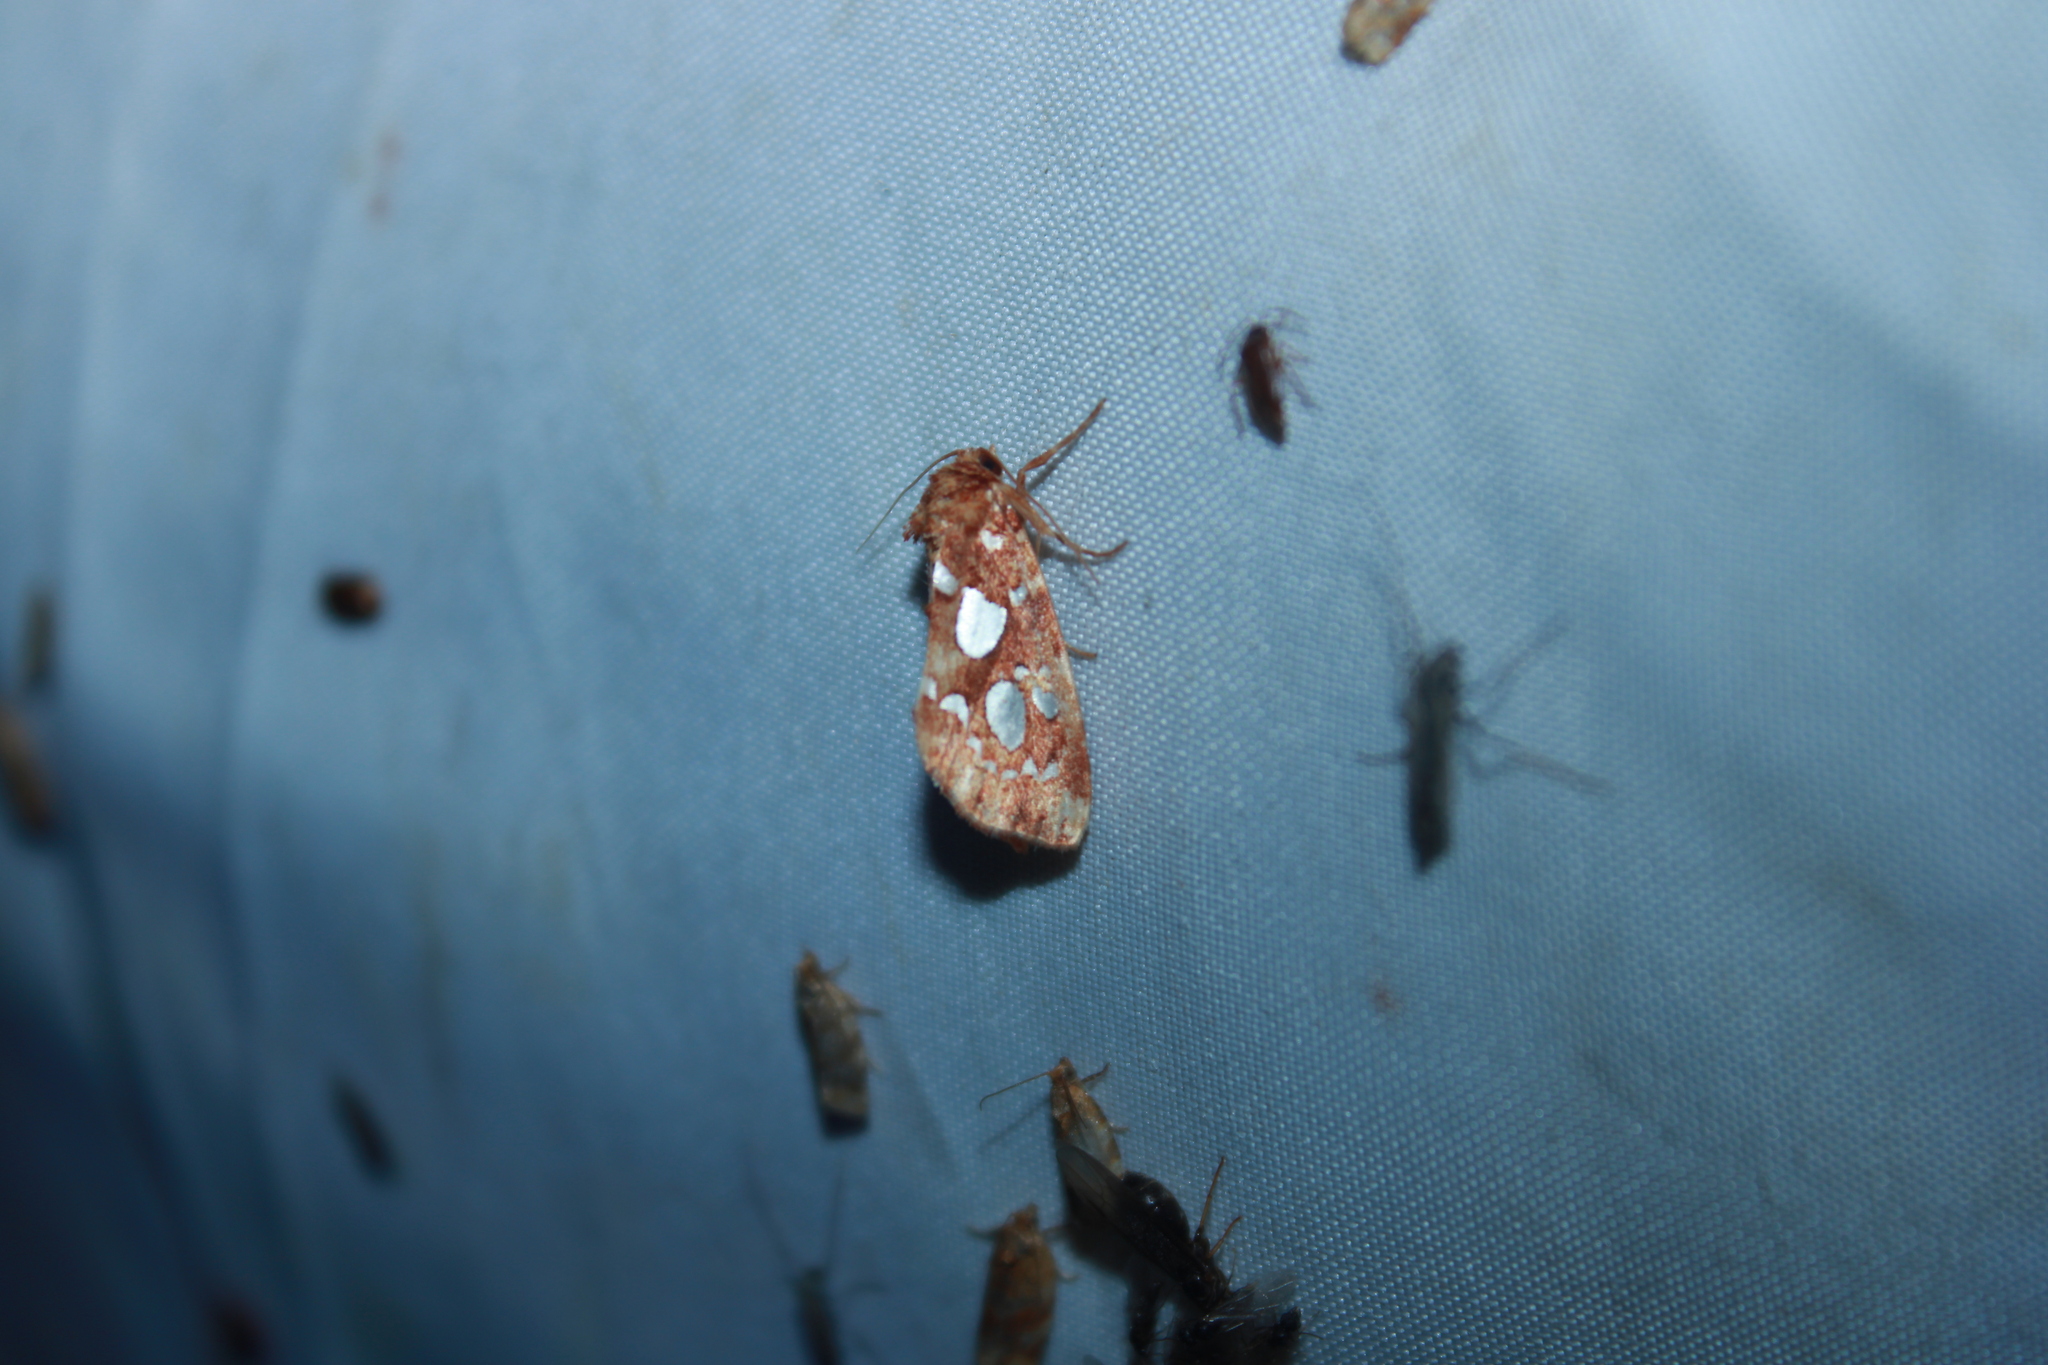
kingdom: Animalia
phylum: Arthropoda
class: Insecta
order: Lepidoptera
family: Noctuidae
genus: Callopistria
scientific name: Callopistria cordata
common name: Silver-spotted fern moth
